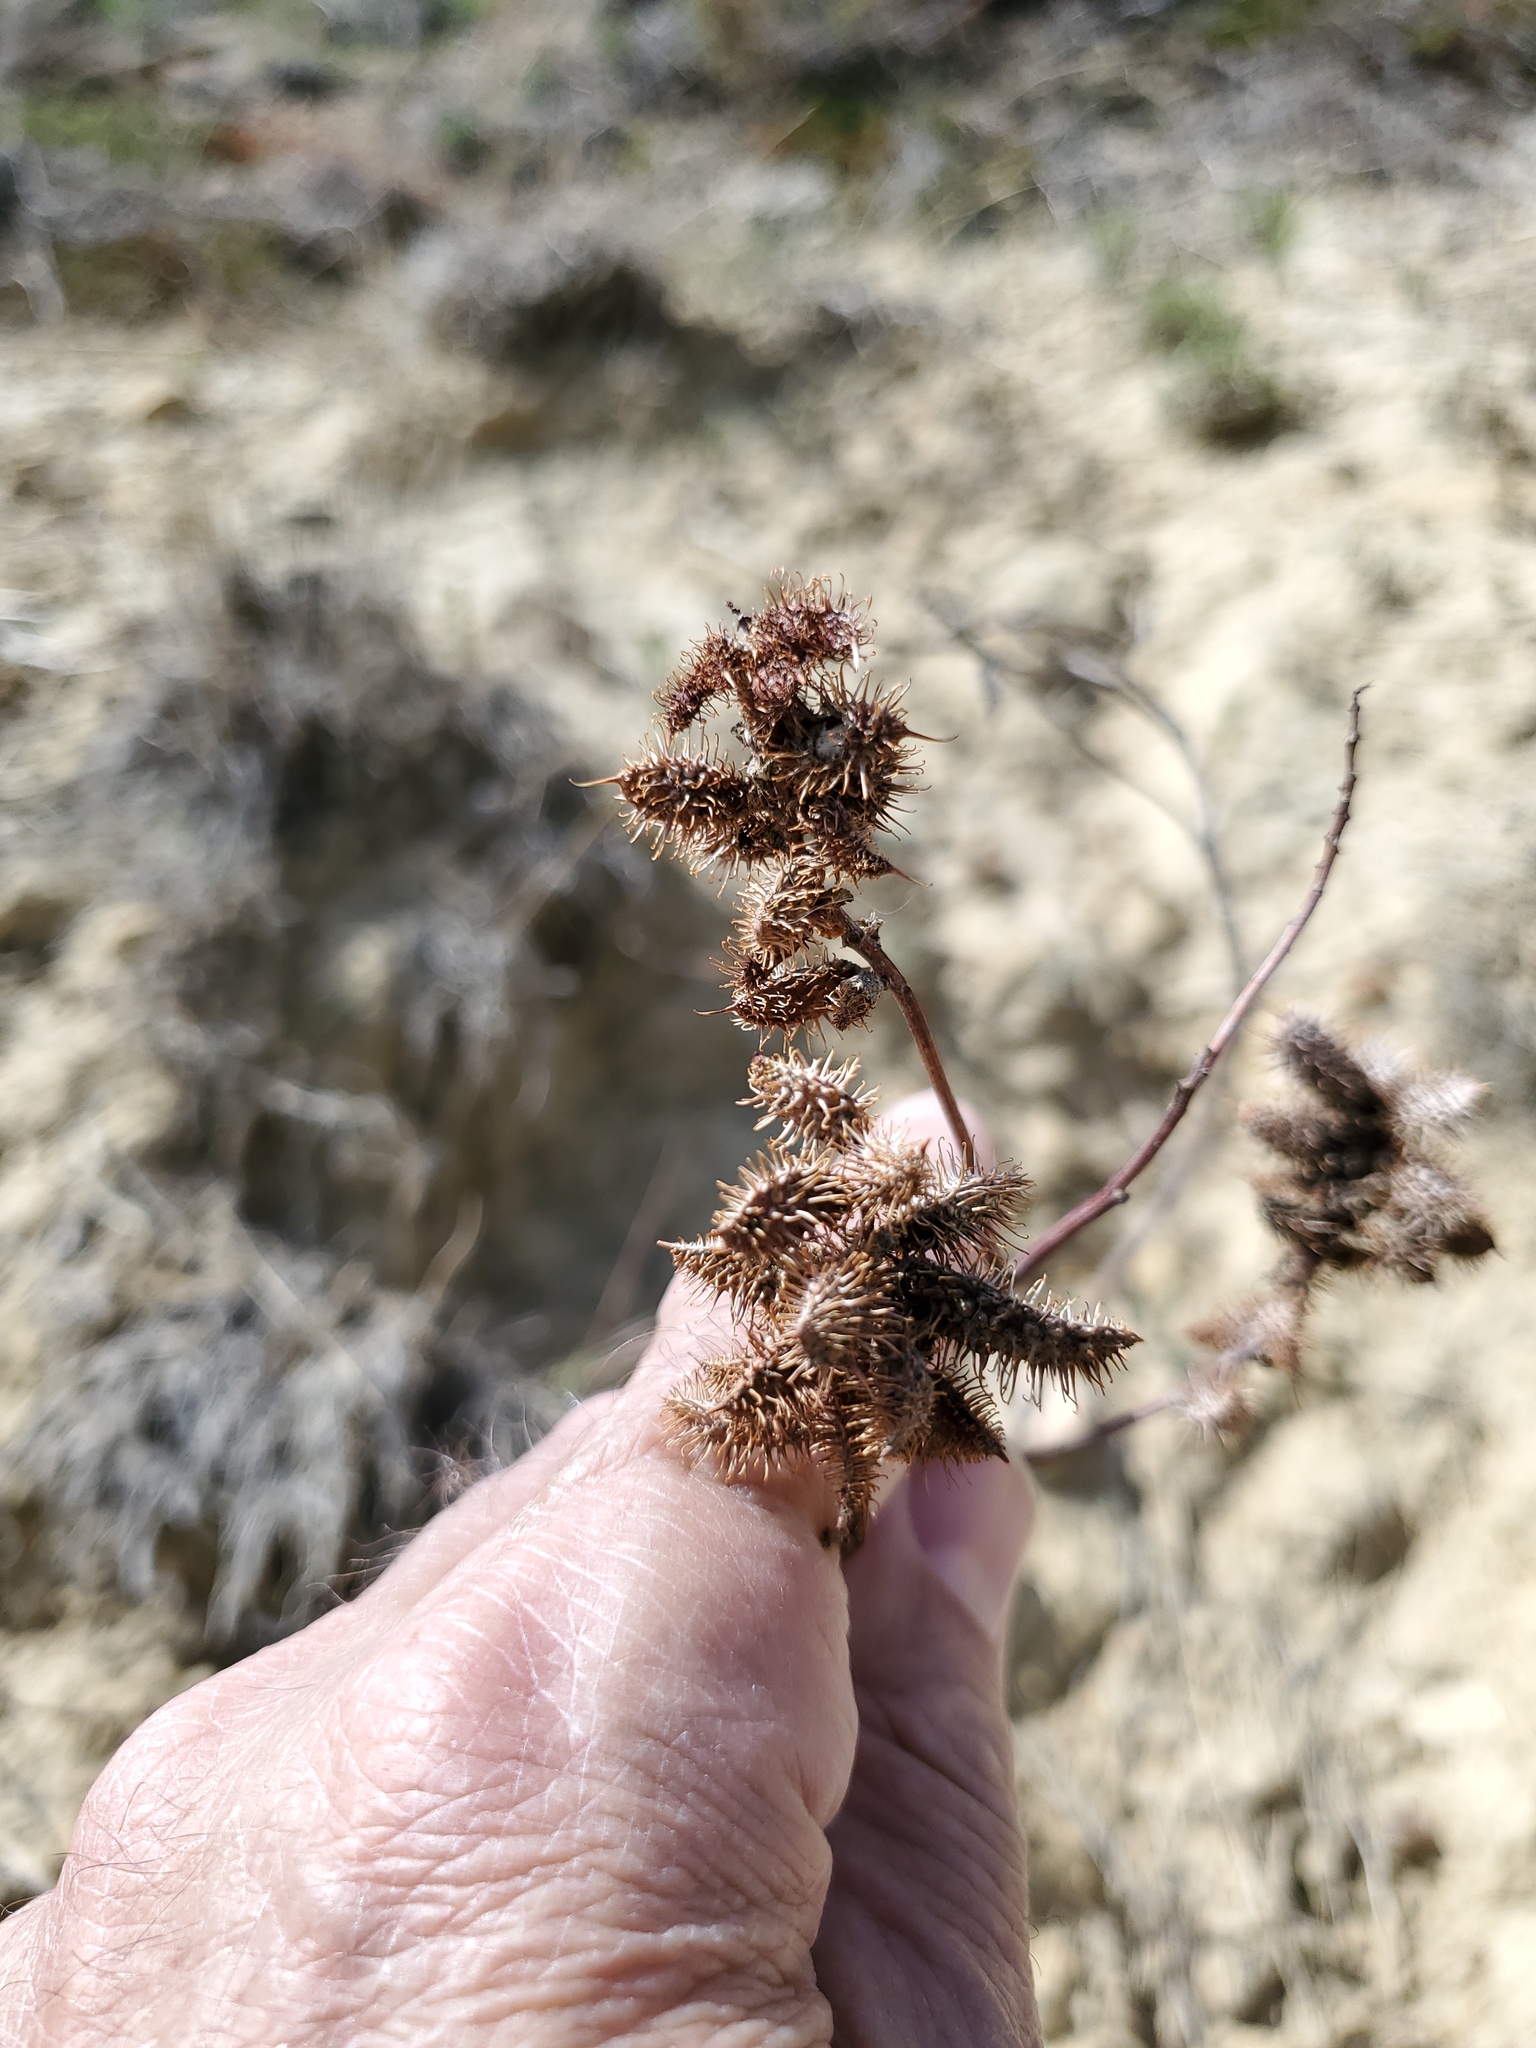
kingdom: Plantae
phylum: Tracheophyta
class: Magnoliopsida
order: Fabales
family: Fabaceae
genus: Glycyrrhiza
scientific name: Glycyrrhiza lepidota
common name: American liquorice
